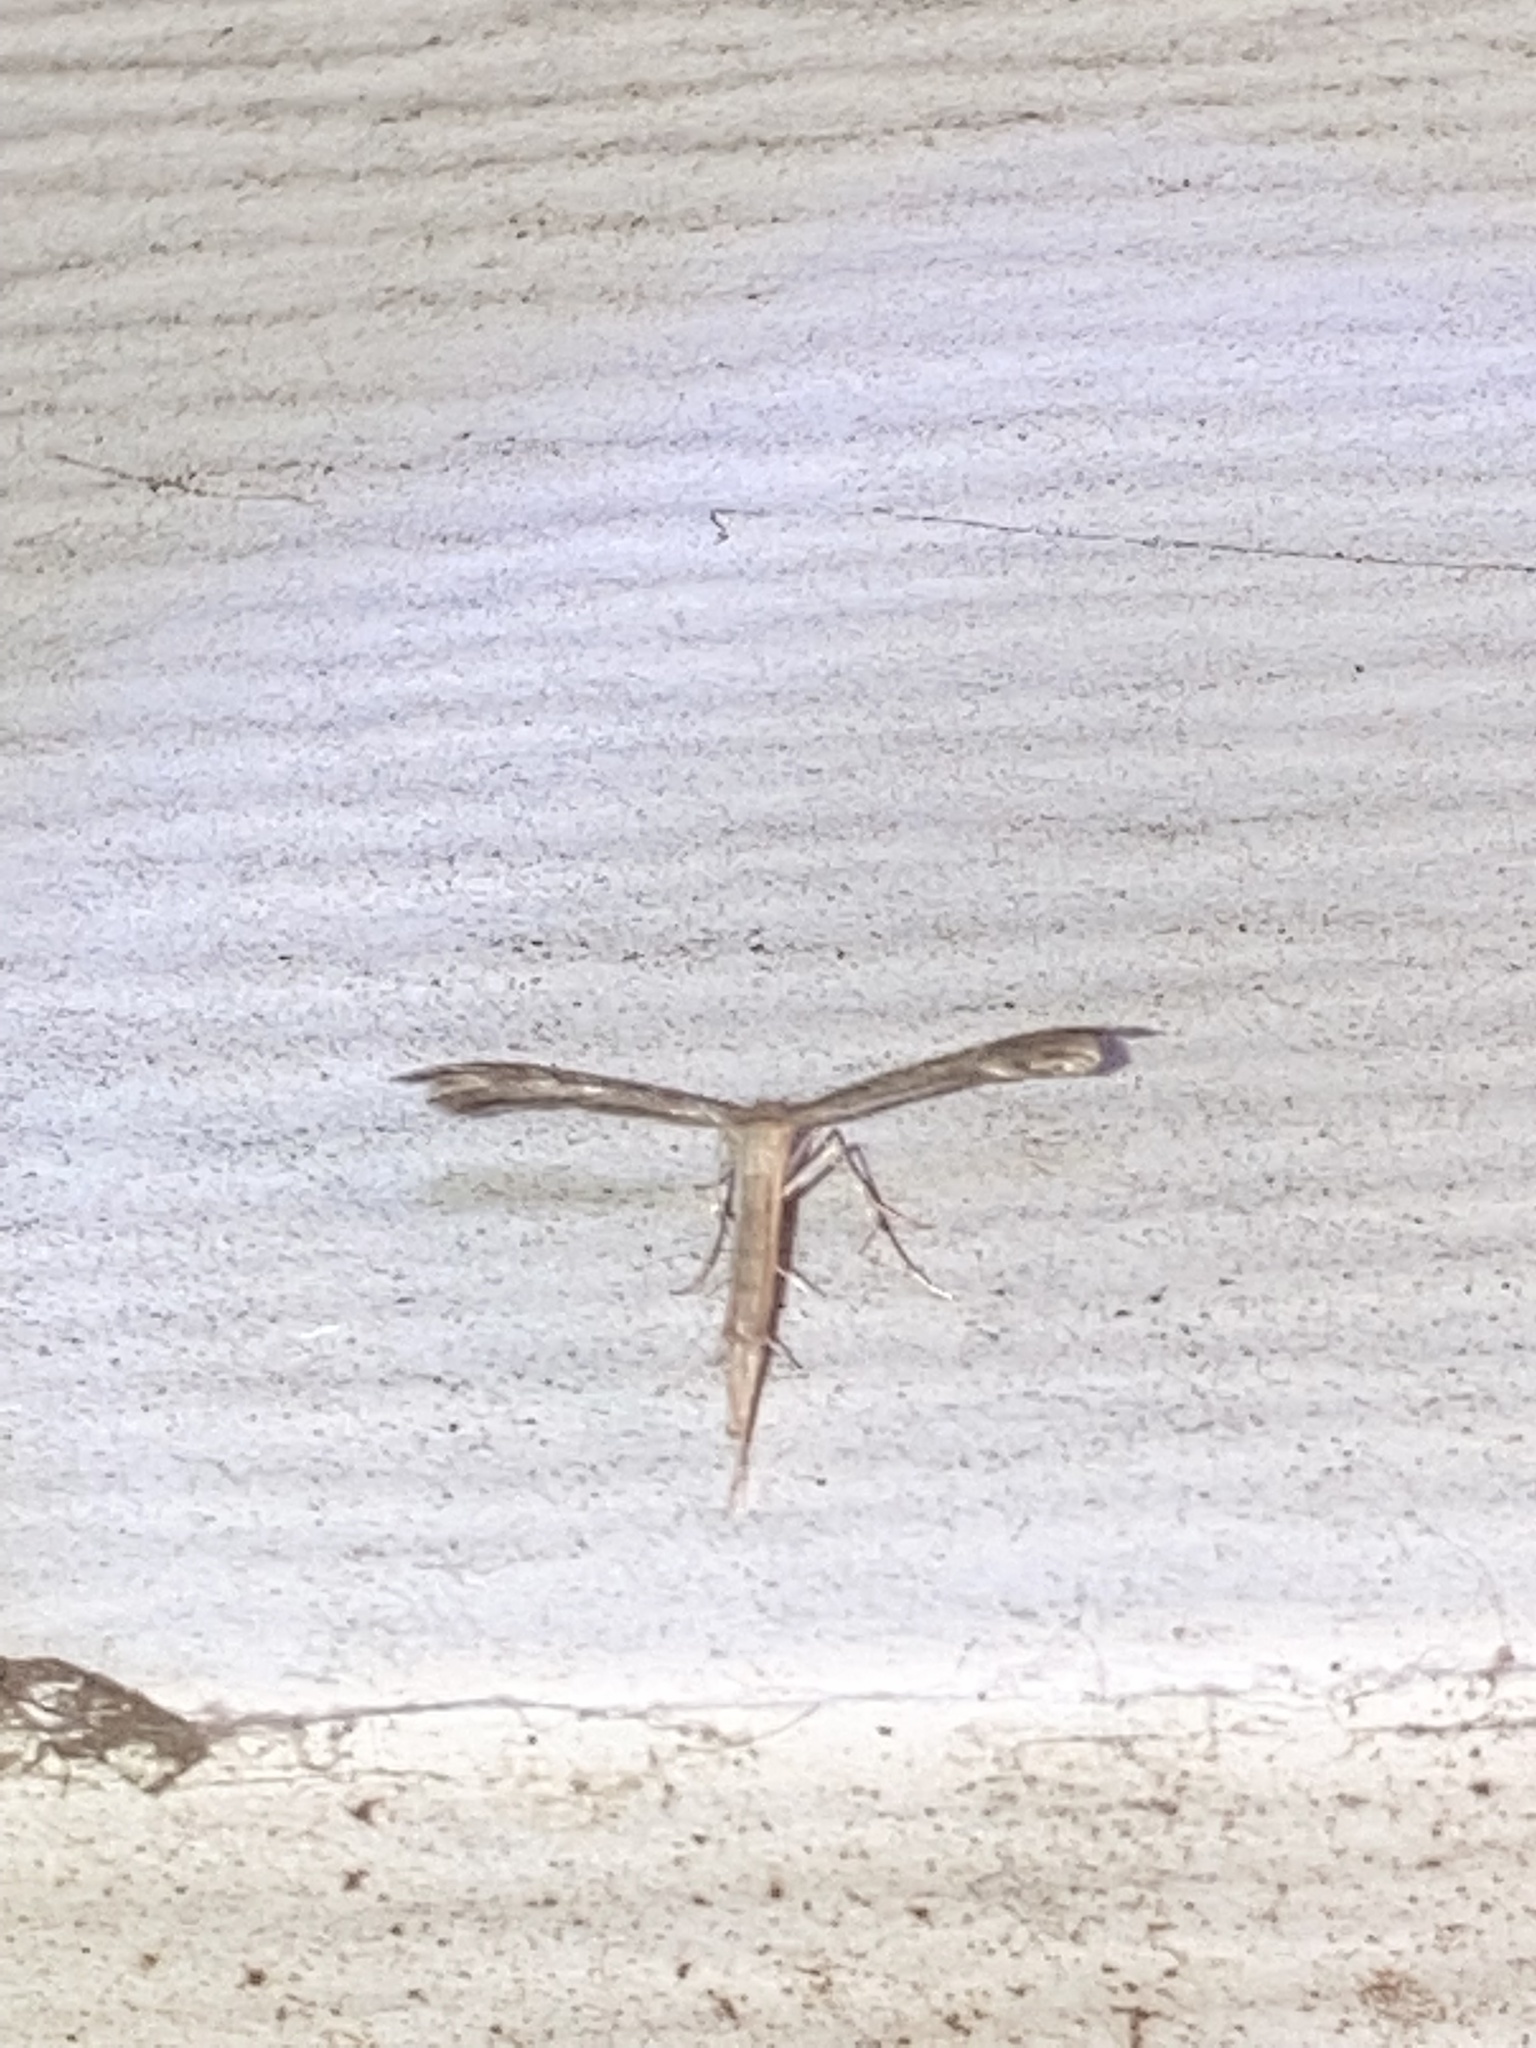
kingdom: Animalia
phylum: Arthropoda
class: Insecta
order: Lepidoptera
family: Pterophoridae
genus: Pselnophorus
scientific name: Pselnophorus belfragei
